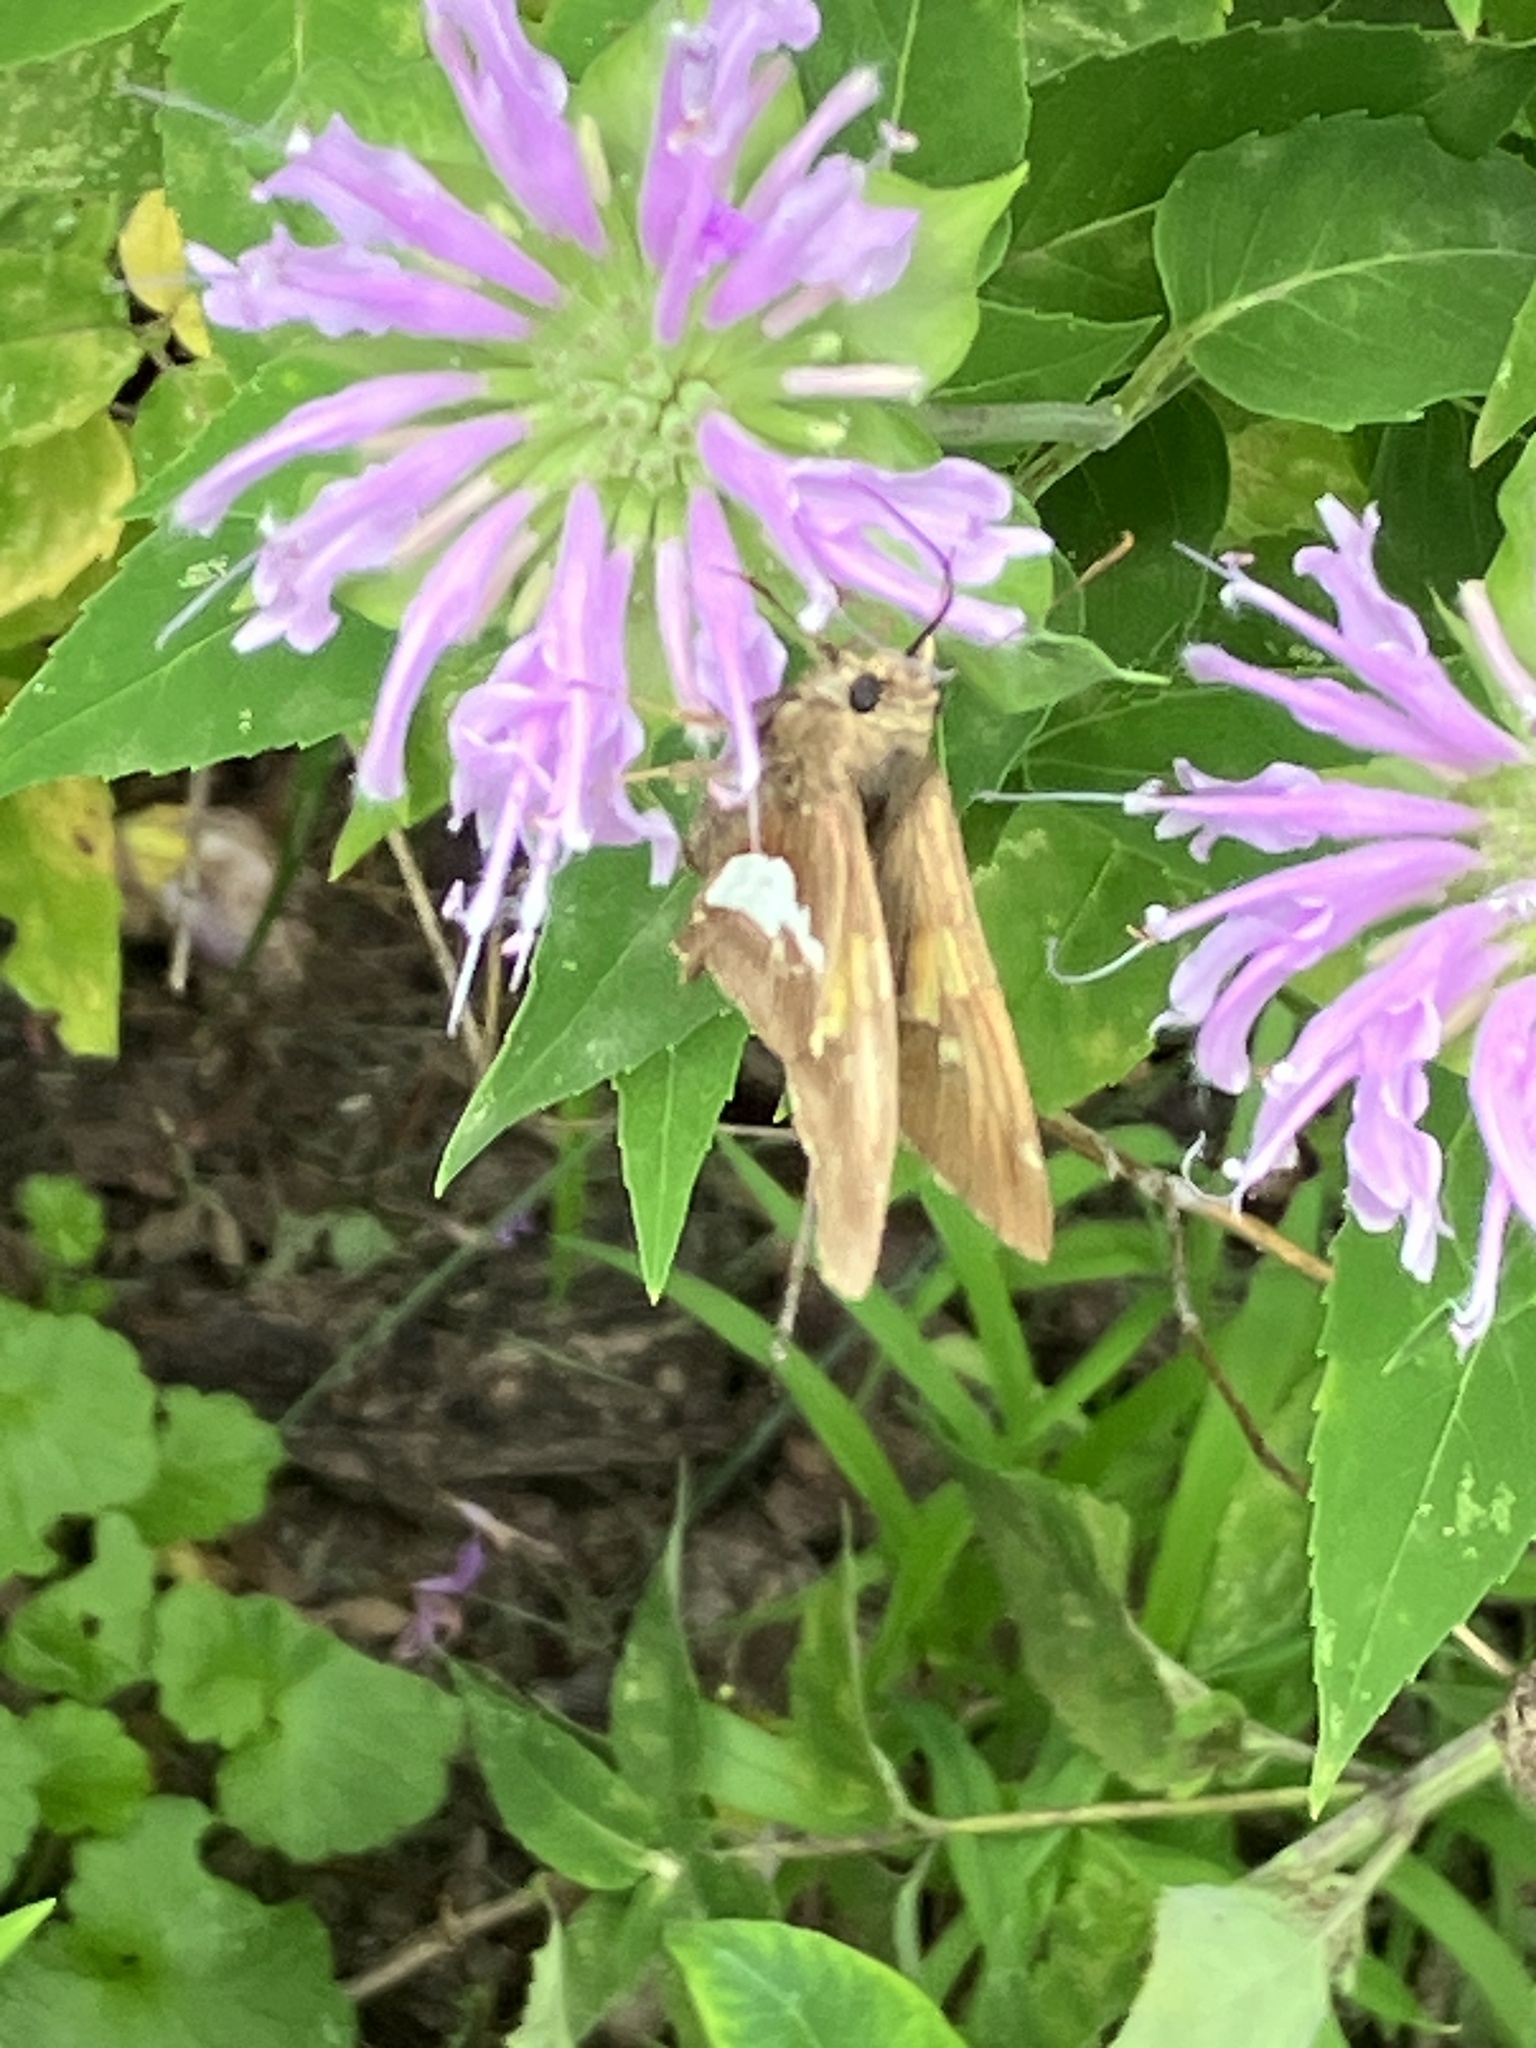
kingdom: Animalia
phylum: Arthropoda
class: Insecta
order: Lepidoptera
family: Hesperiidae
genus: Epargyreus
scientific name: Epargyreus clarus
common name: Silver-spotted skipper
